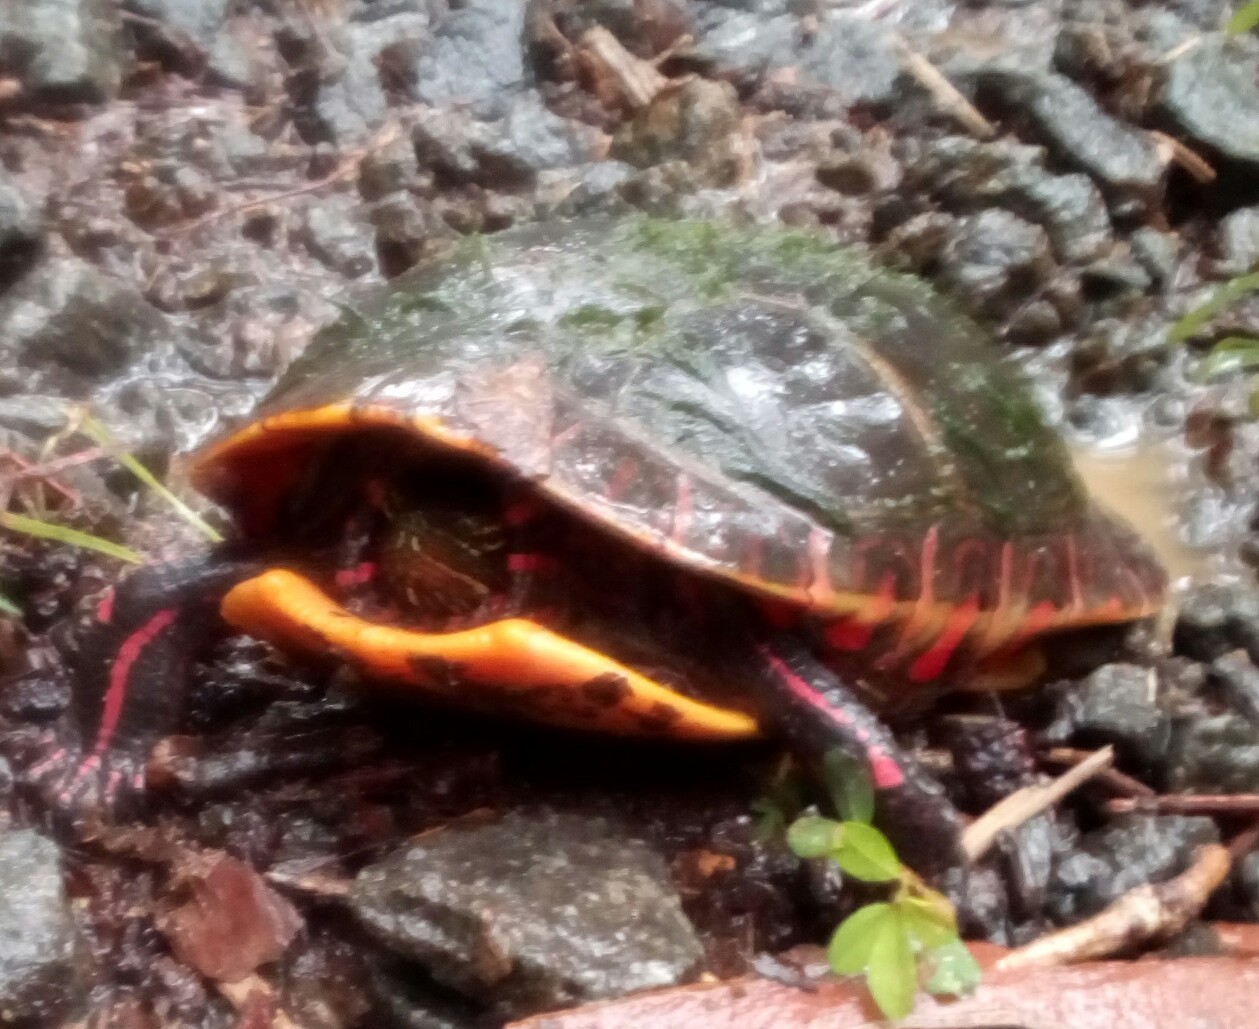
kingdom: Animalia
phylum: Chordata
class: Testudines
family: Emydidae
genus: Chrysemys
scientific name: Chrysemys picta
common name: Painted turtle
